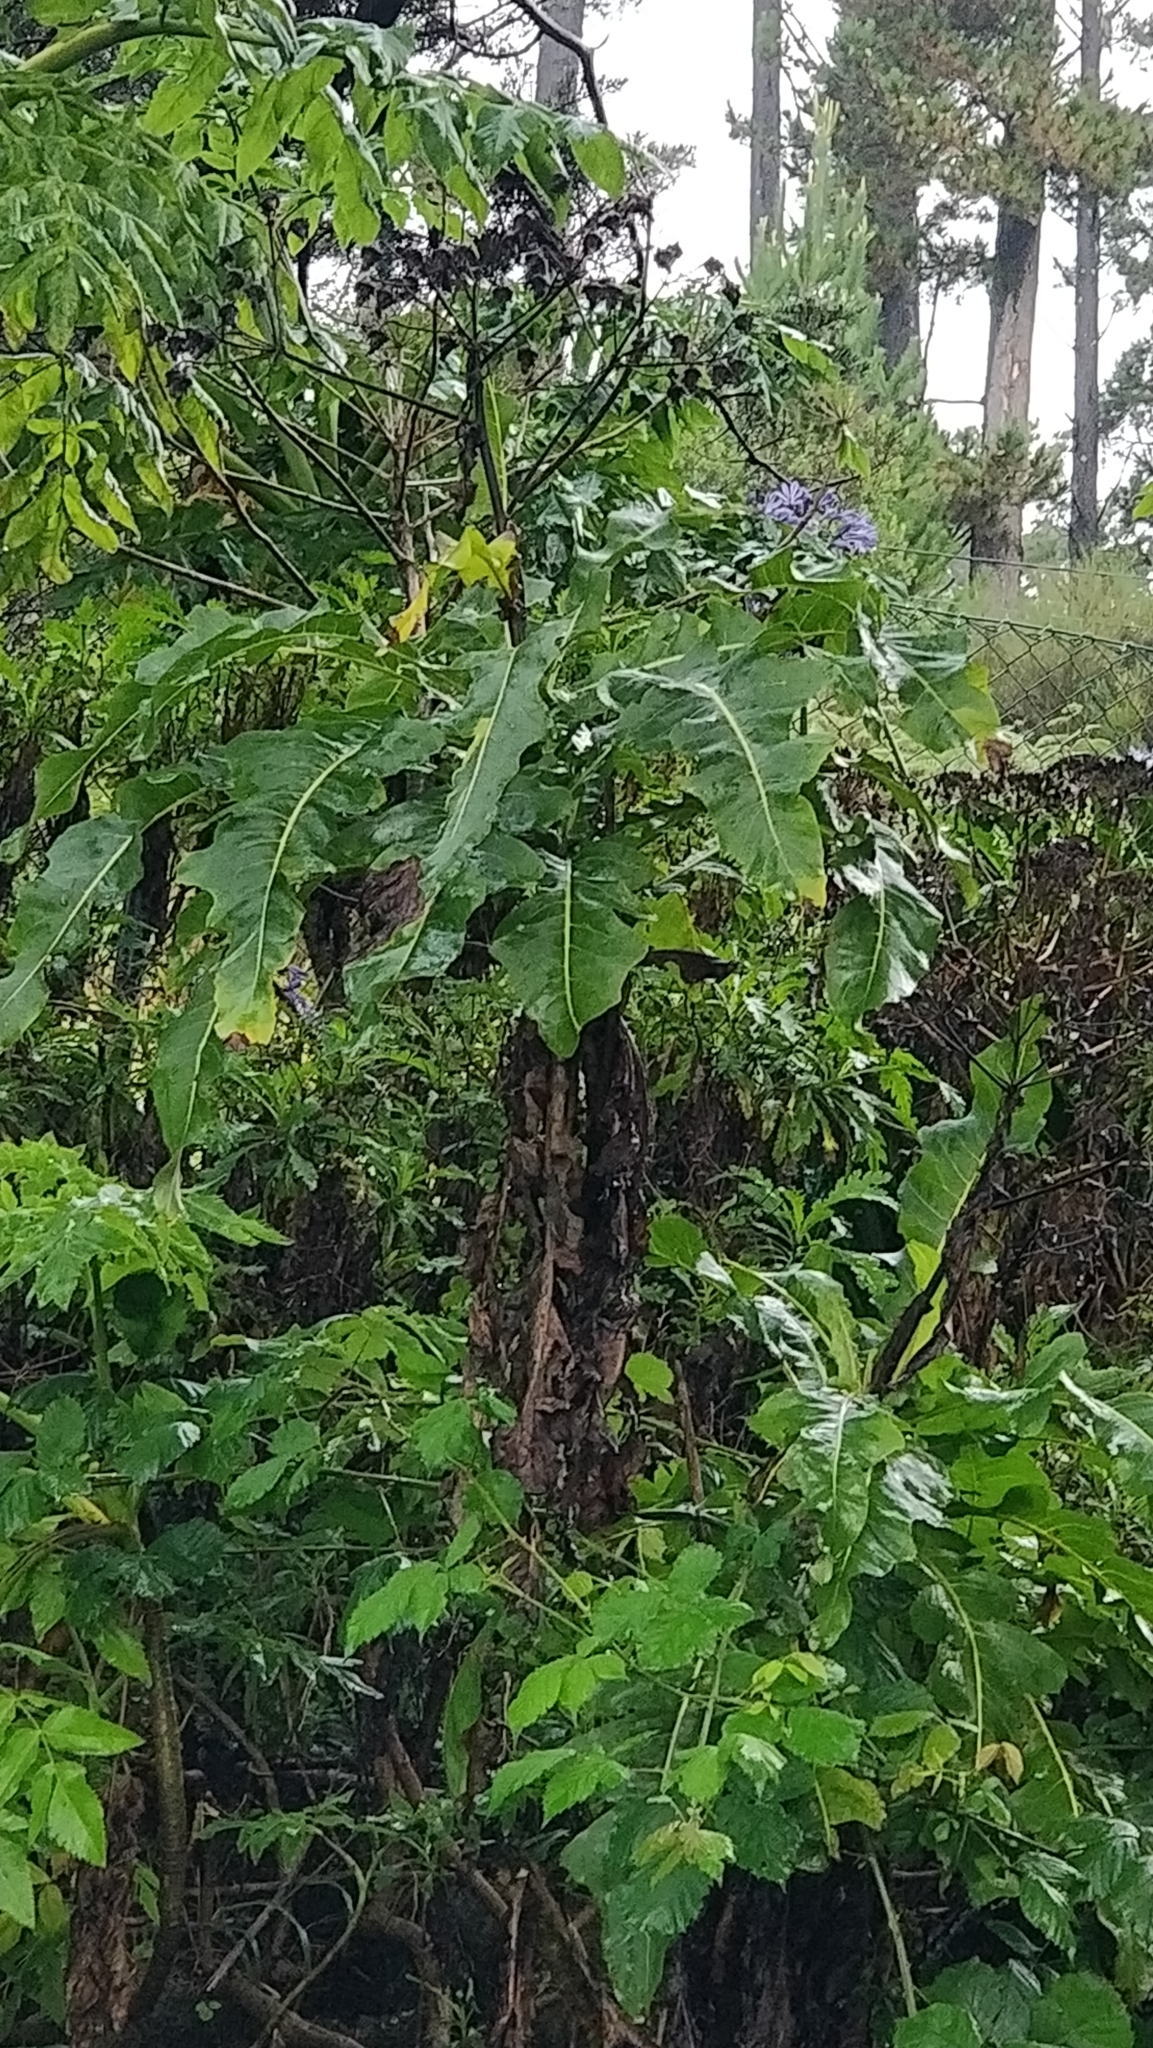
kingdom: Plantae
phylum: Tracheophyta
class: Magnoliopsida
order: Asterales
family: Asteraceae
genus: Sonchus
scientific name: Sonchus fruticosus
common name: Shrubby sow-thistle
